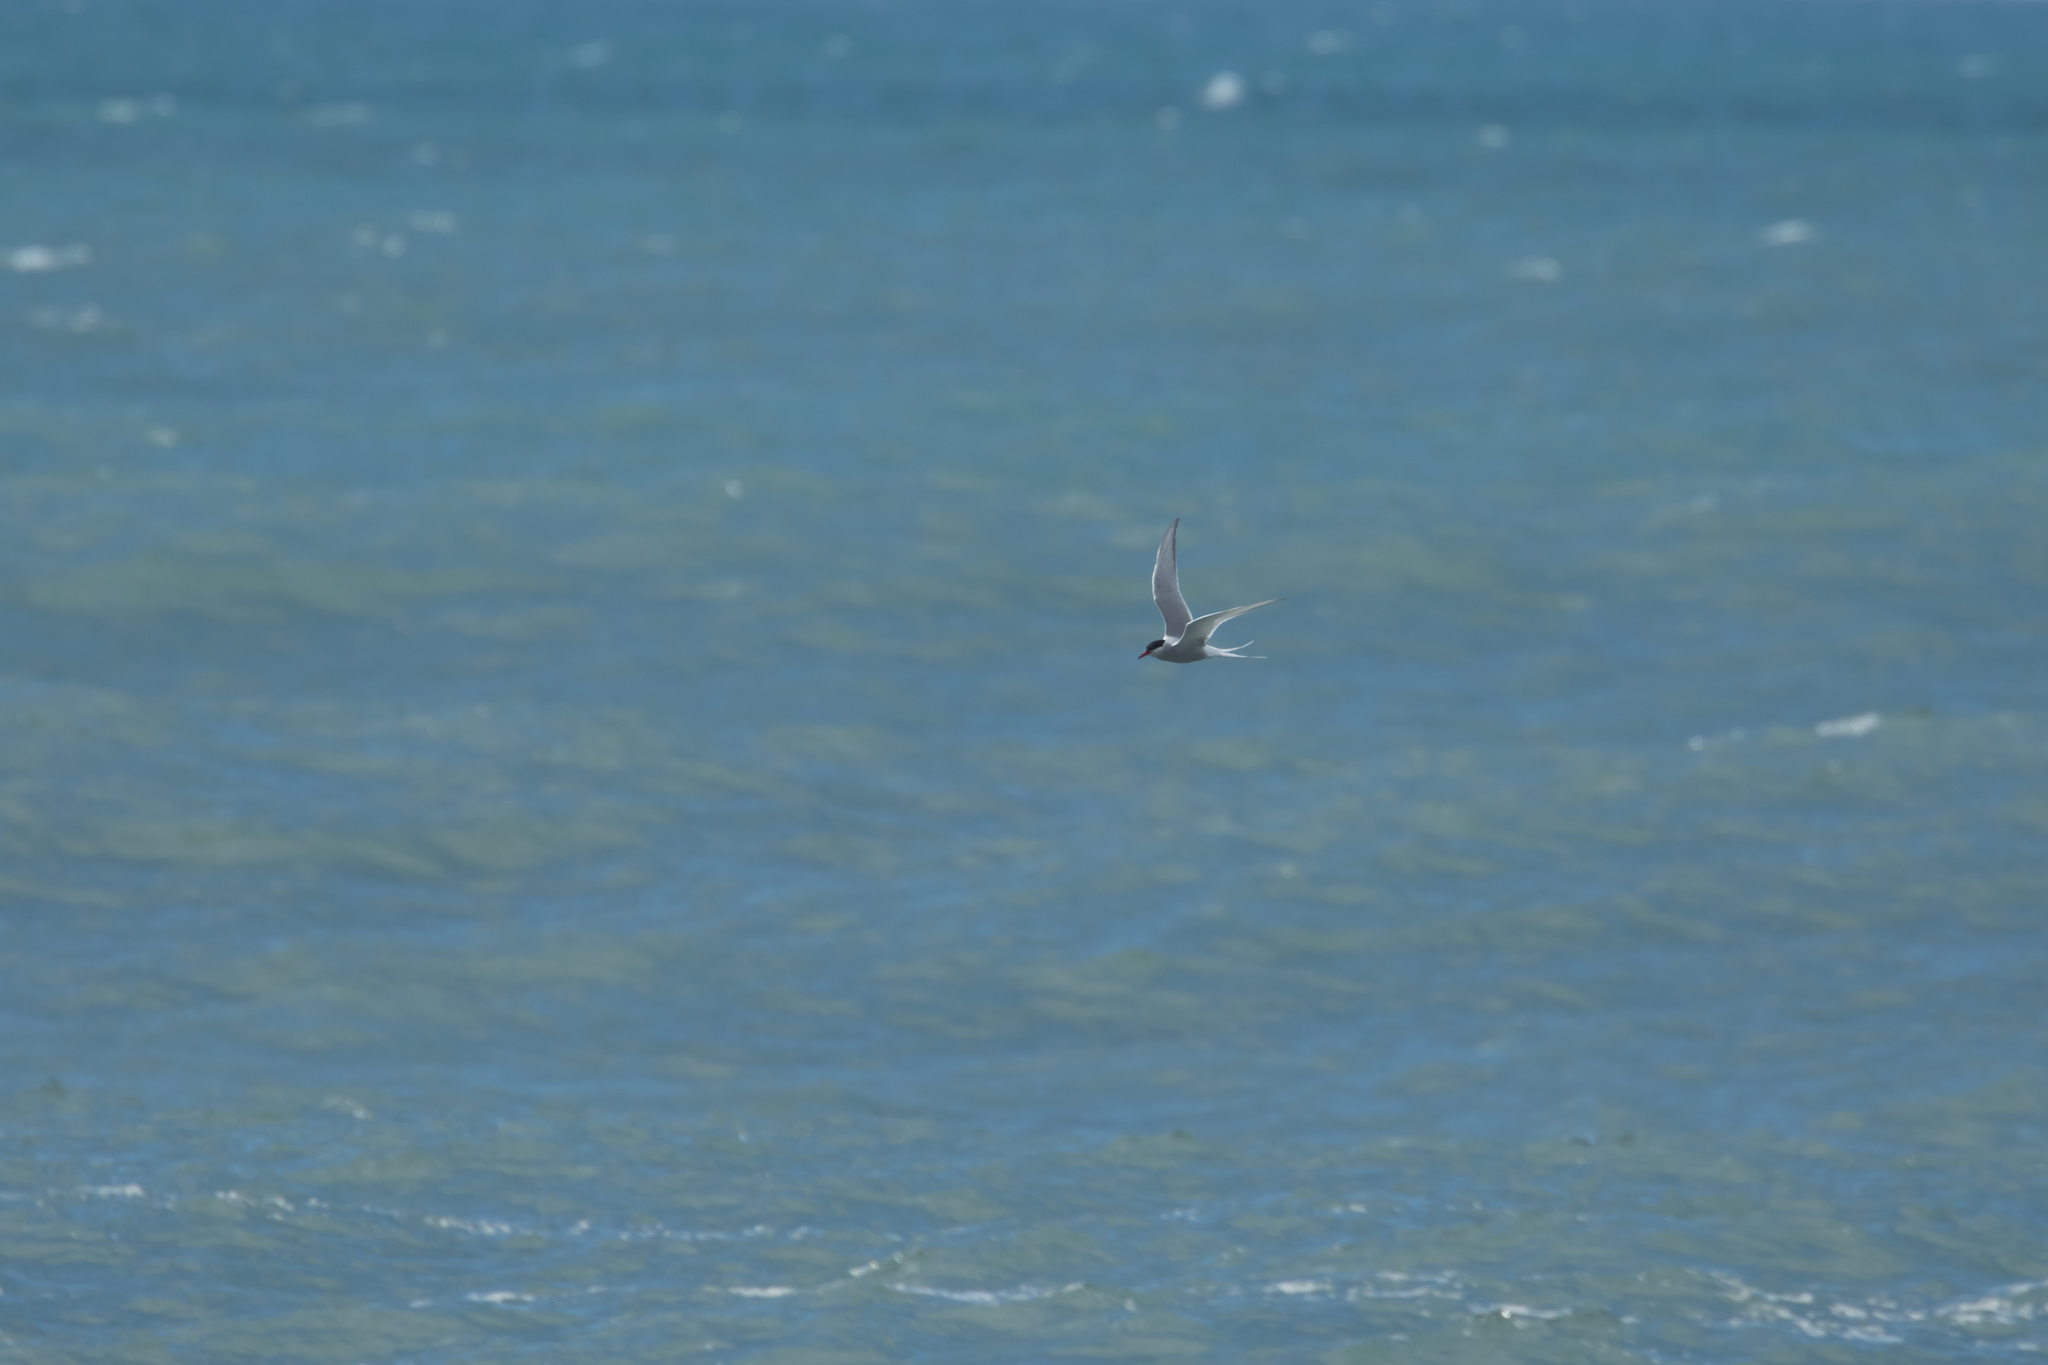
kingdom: Animalia
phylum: Chordata
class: Aves
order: Charadriiformes
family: Laridae
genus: Sterna
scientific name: Sterna paradisaea
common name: Arctic tern
